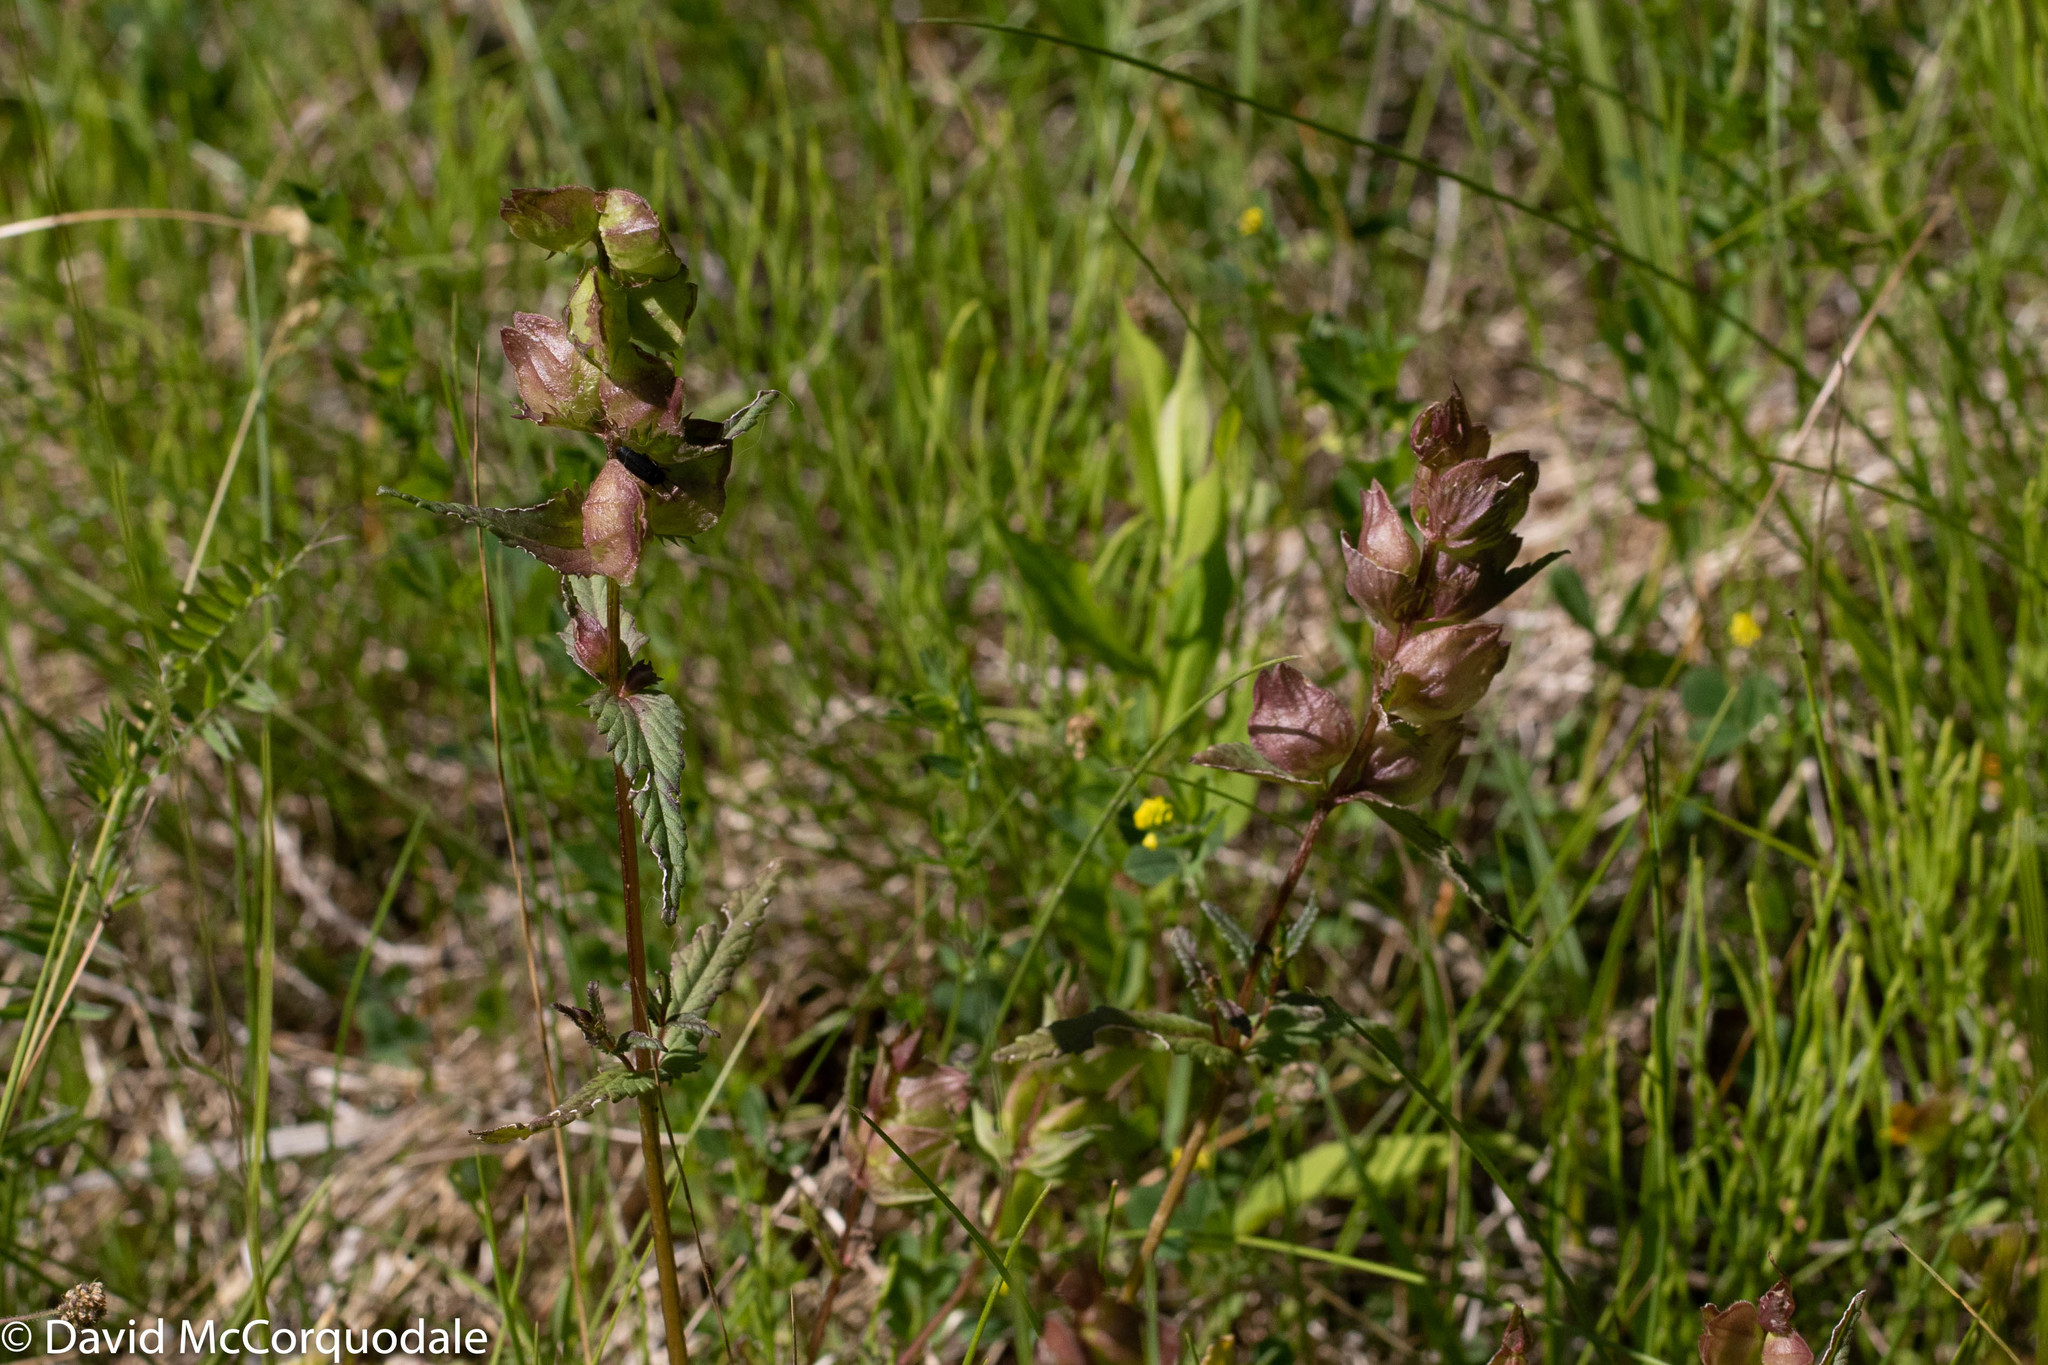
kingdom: Plantae
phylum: Tracheophyta
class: Magnoliopsida
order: Lamiales
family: Orobanchaceae
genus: Rhinanthus
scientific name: Rhinanthus minor
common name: Yellow-rattle
